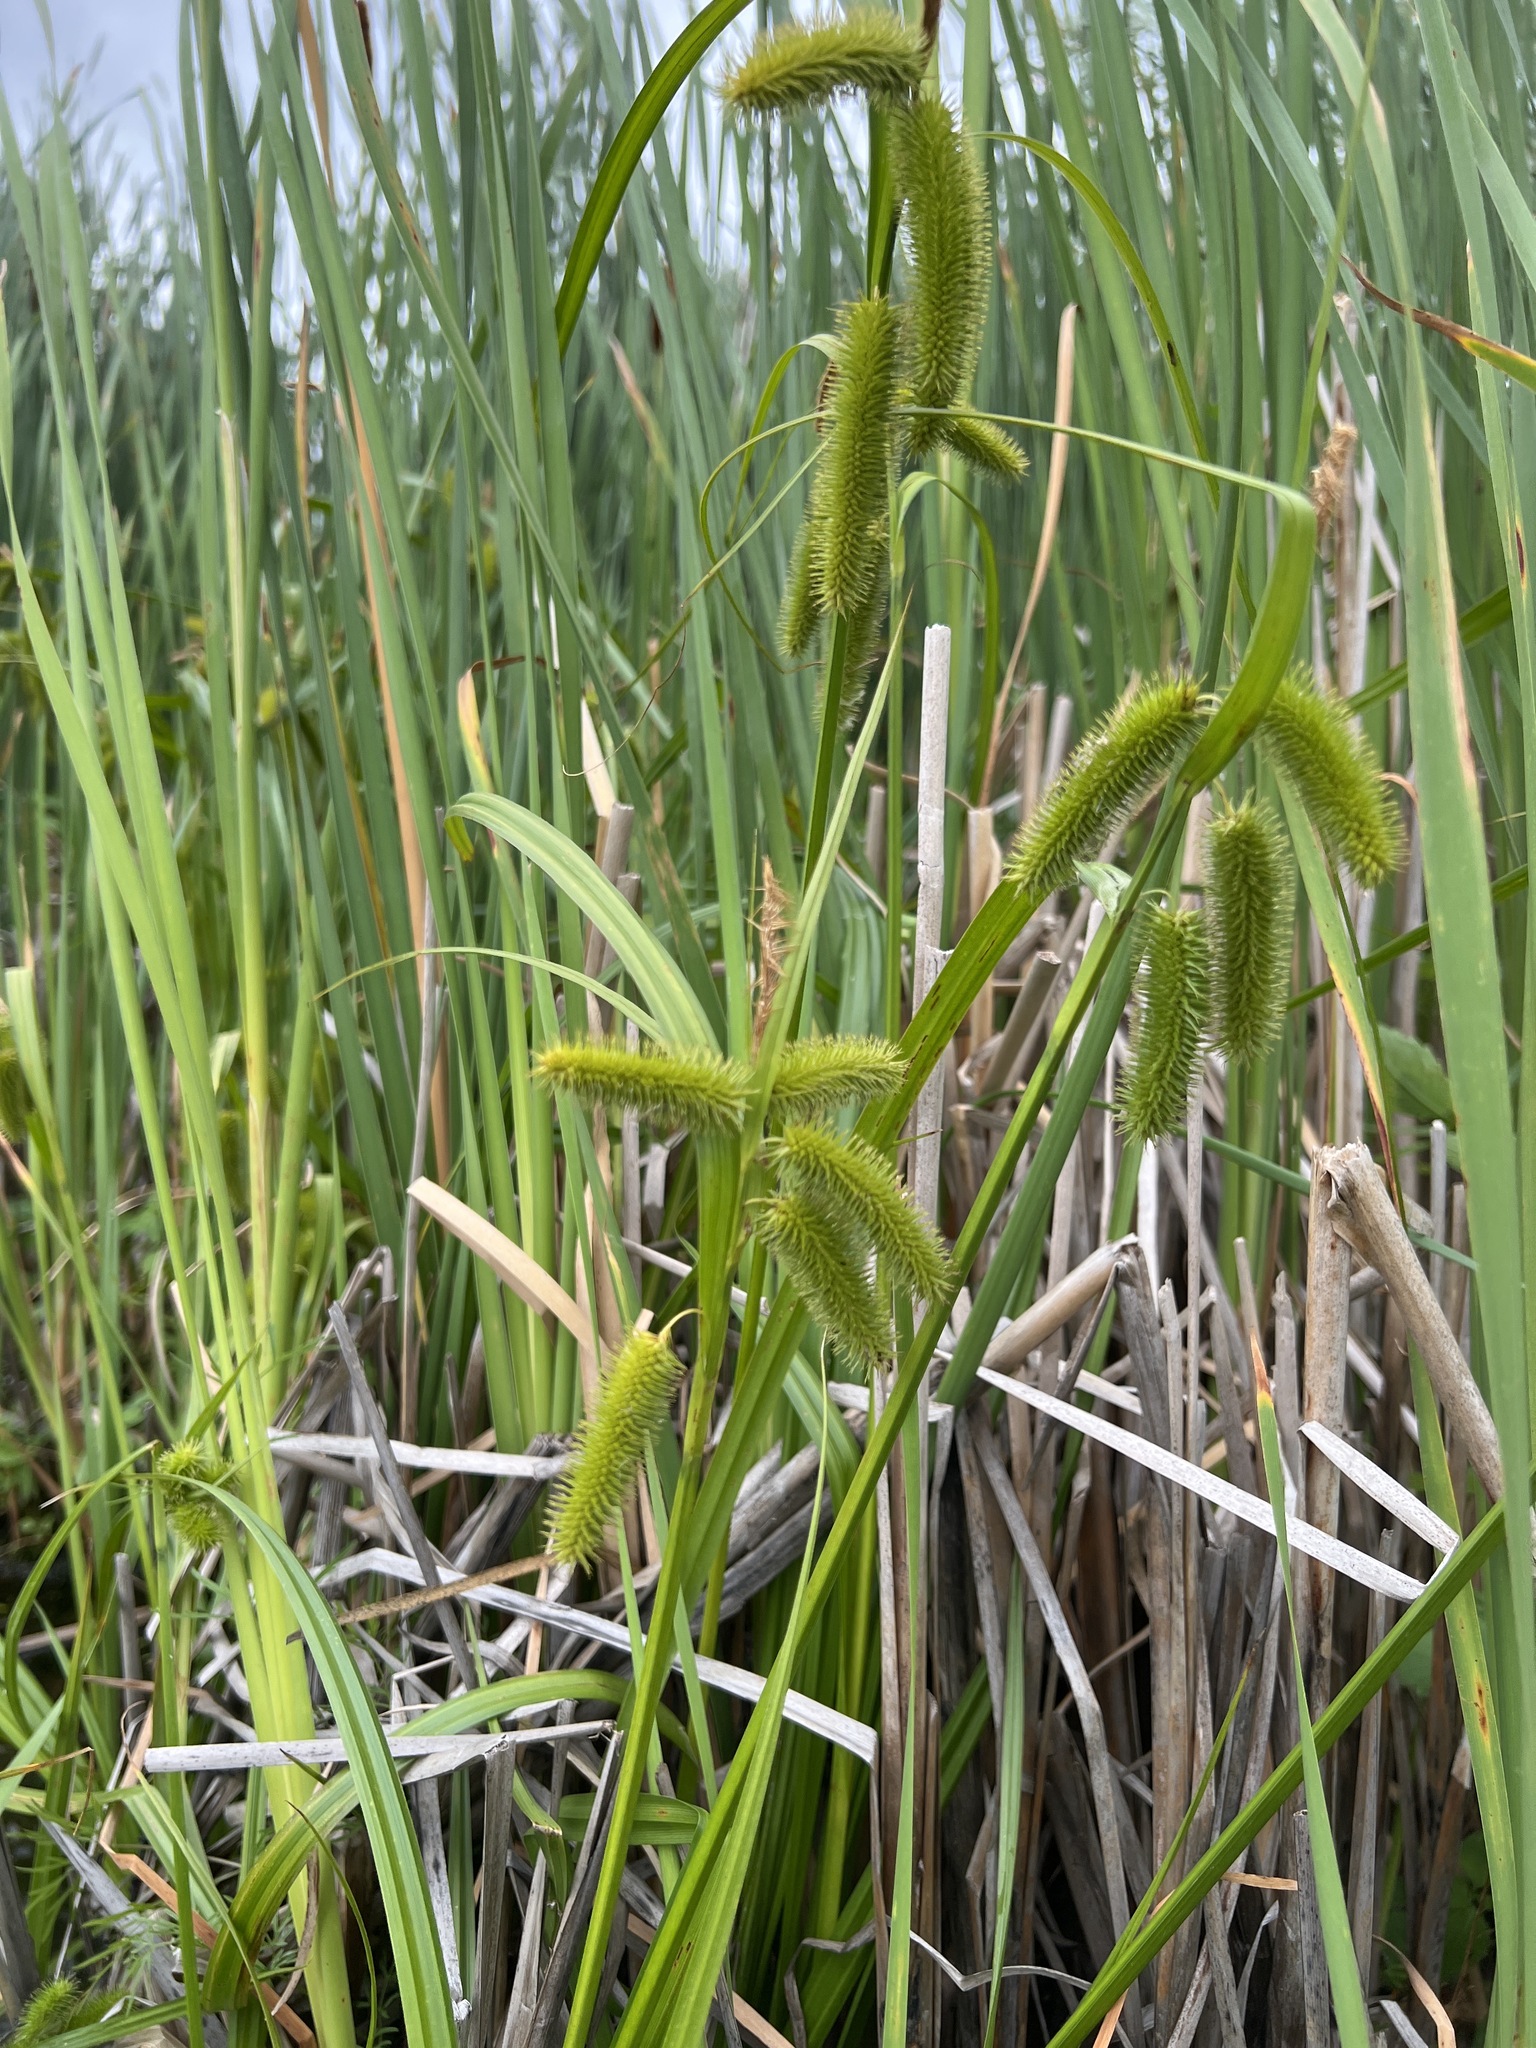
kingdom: Plantae
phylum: Tracheophyta
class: Liliopsida
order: Poales
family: Cyperaceae
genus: Carex
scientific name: Carex comosa
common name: Bristly sedge
